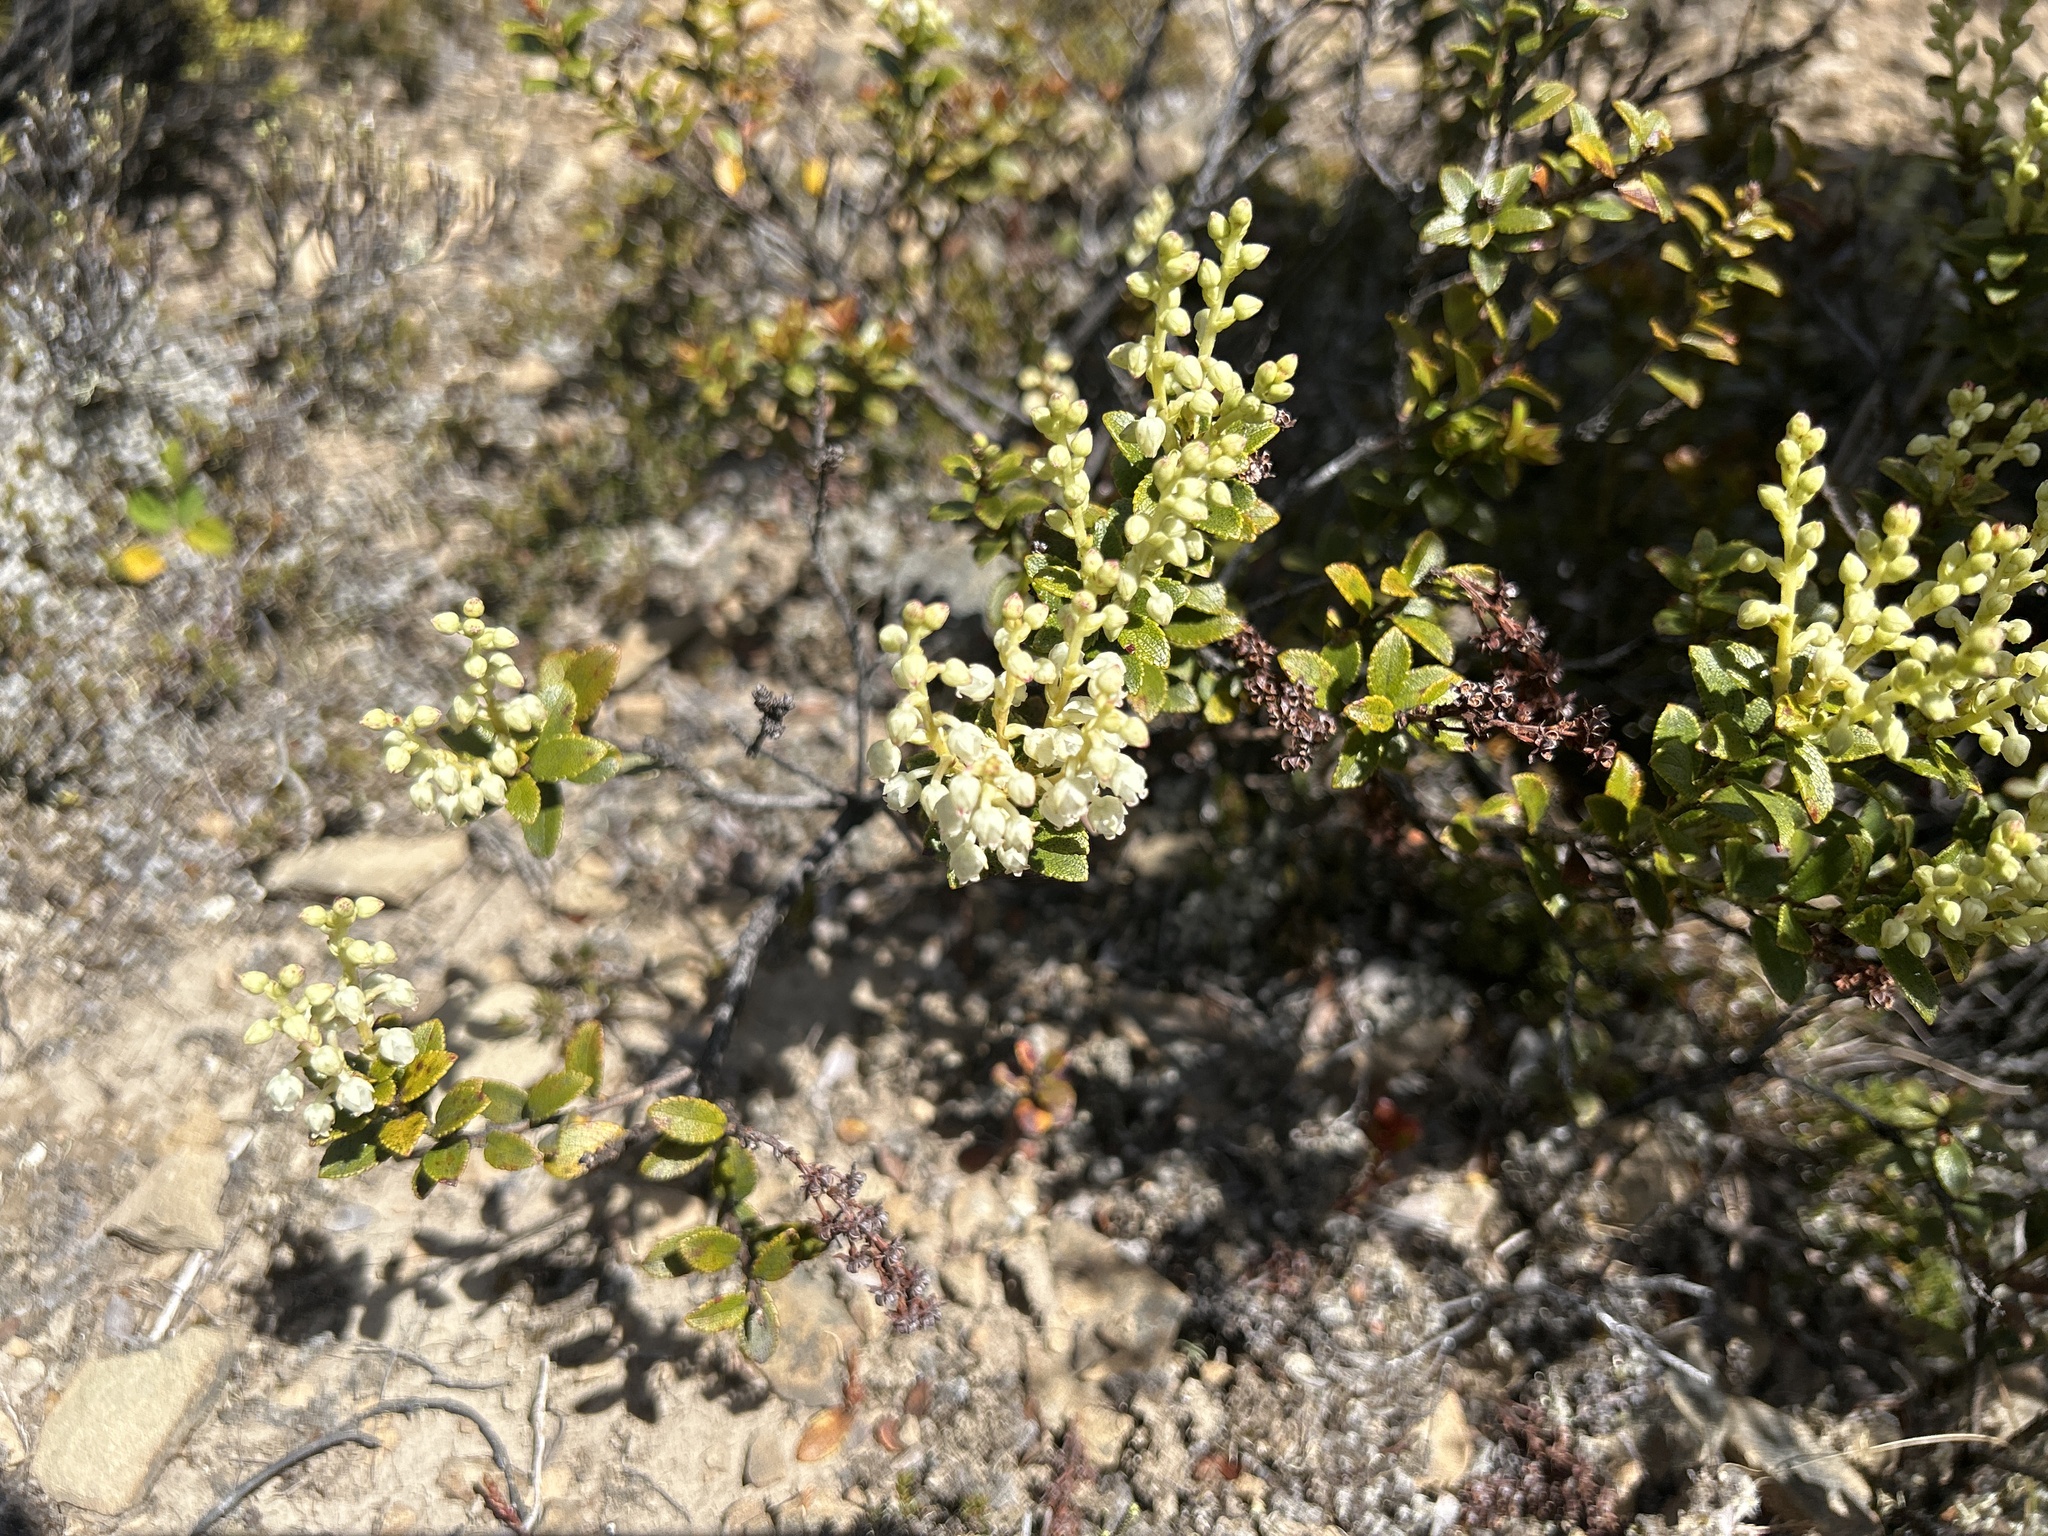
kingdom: Plantae
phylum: Tracheophyta
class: Magnoliopsida
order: Ericales
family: Ericaceae
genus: Gaultheria
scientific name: Gaultheria crassa
